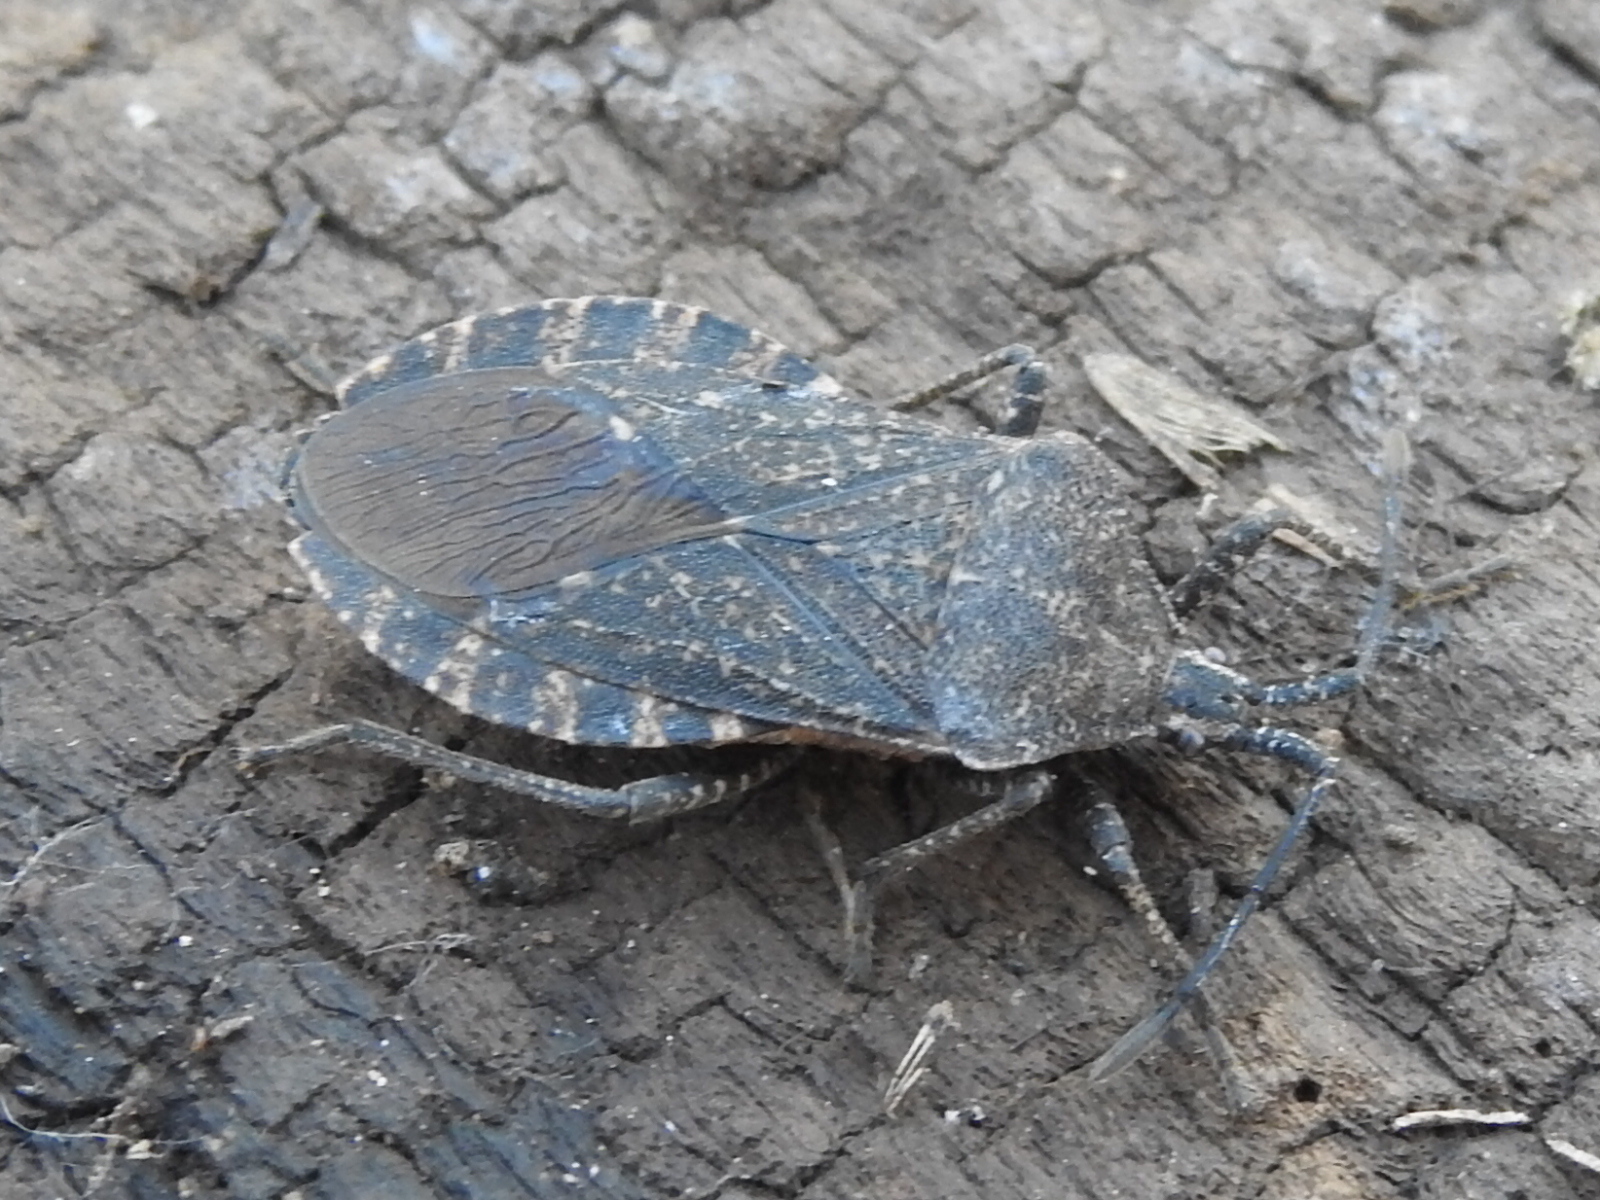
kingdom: Animalia
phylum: Arthropoda
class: Insecta
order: Hemiptera
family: Coreidae
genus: Cimolus
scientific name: Cimolus obscurus
